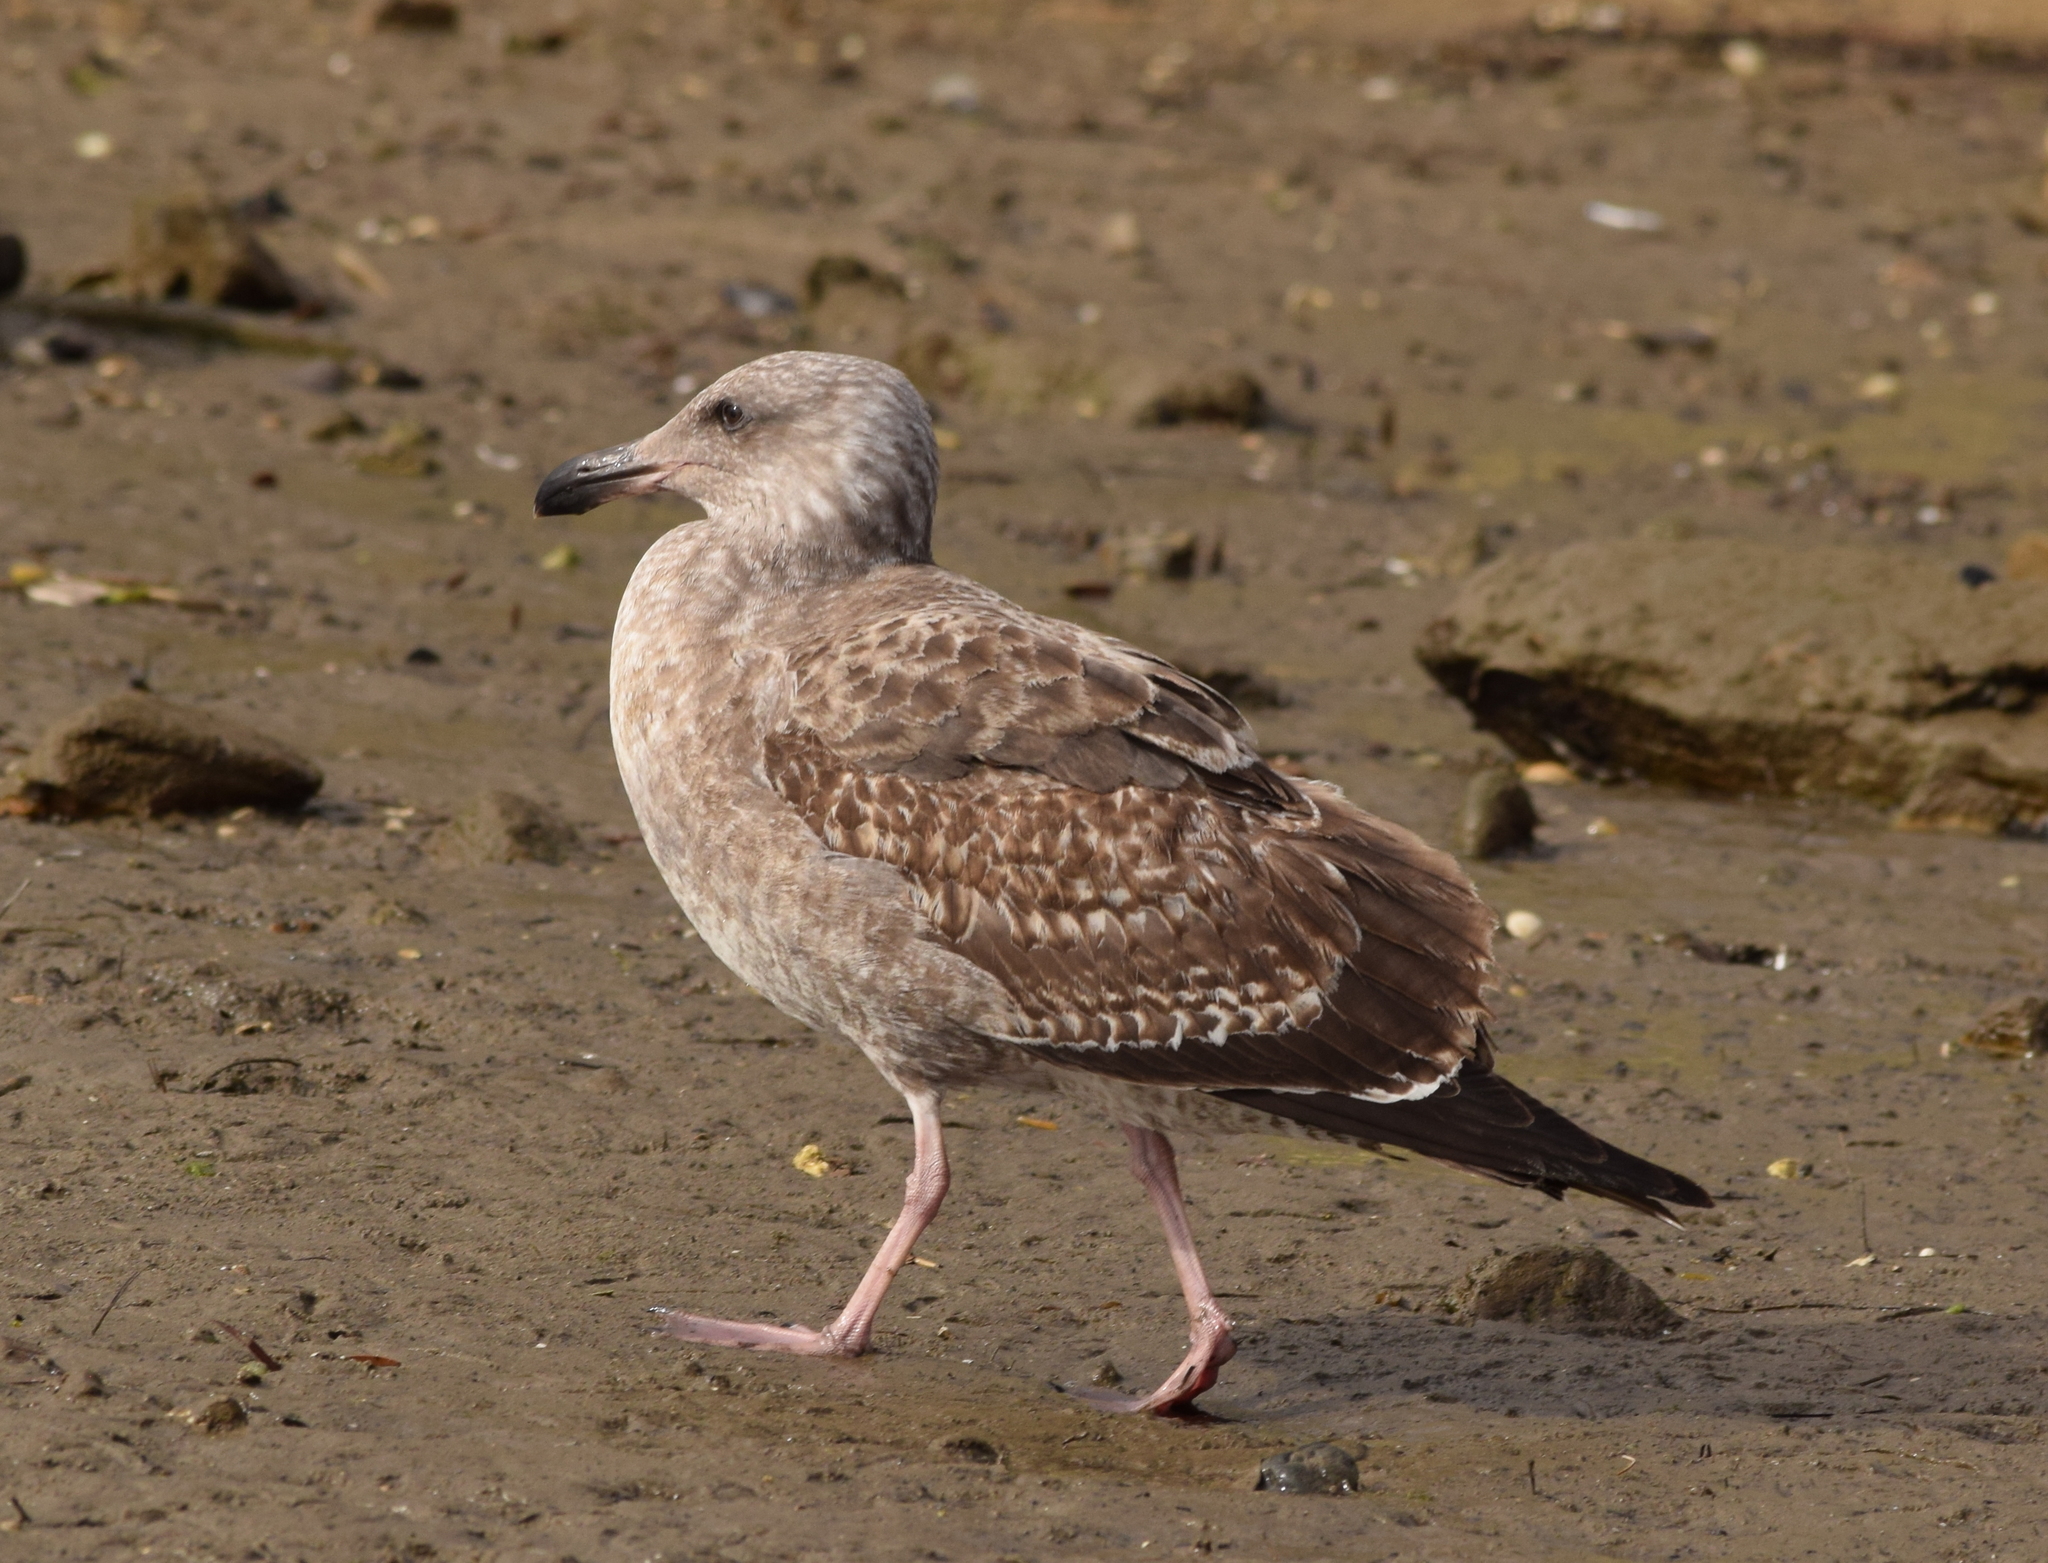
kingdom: Animalia
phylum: Chordata
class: Aves
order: Charadriiformes
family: Laridae
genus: Larus
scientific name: Larus occidentalis
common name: Western gull
